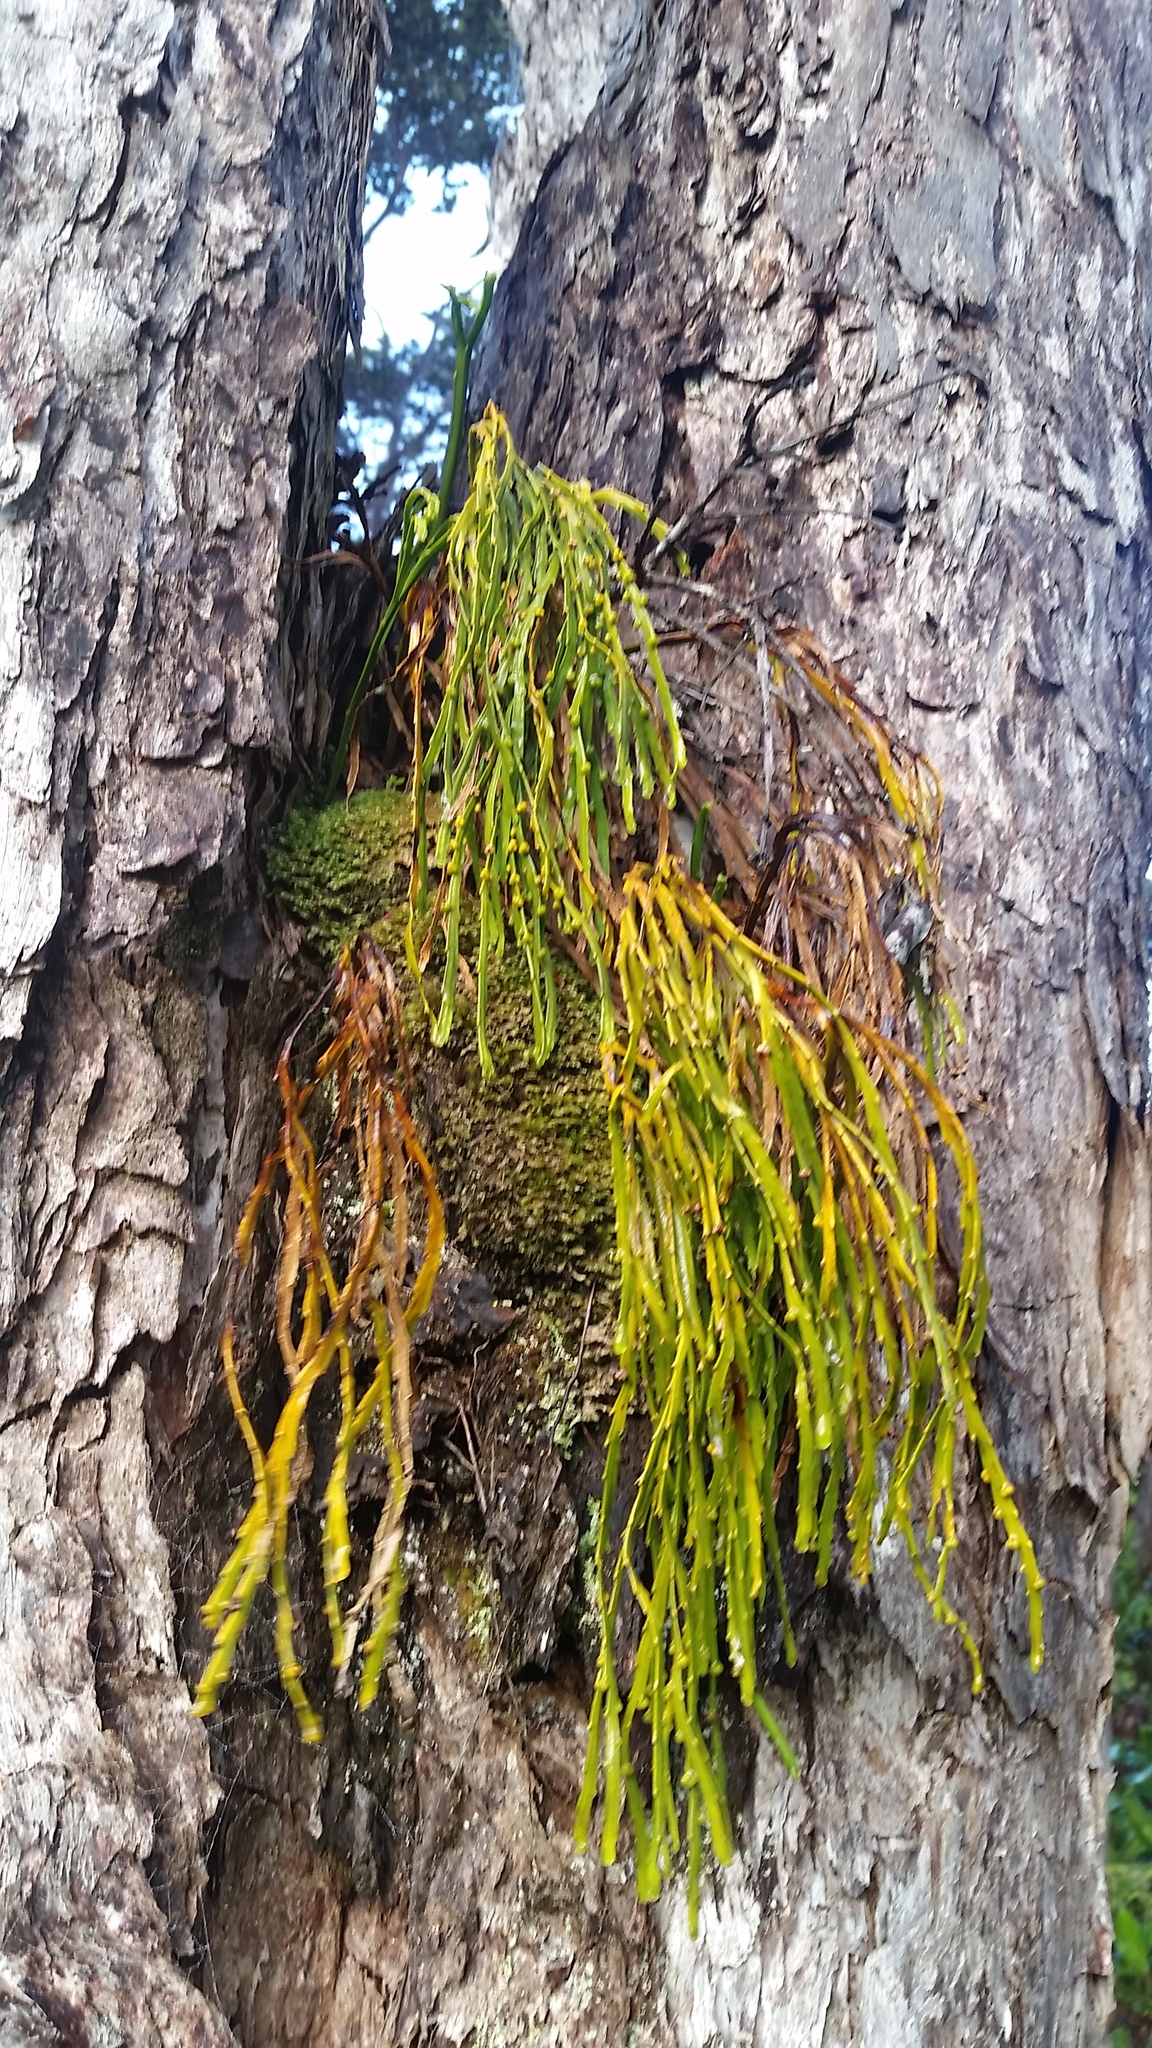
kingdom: Plantae
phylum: Tracheophyta
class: Polypodiopsida
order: Psilotales
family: Psilotaceae
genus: Psilotum
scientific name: Psilotum complanatum
